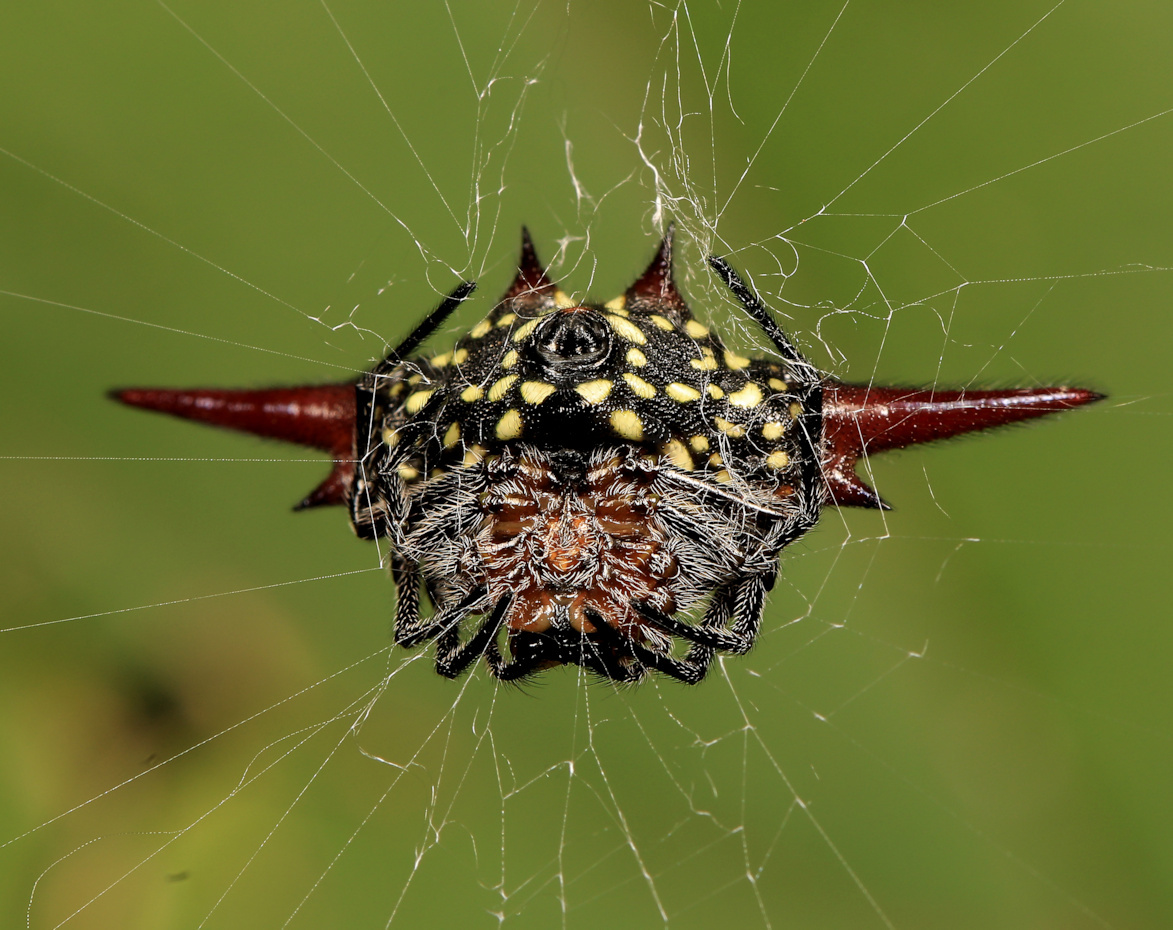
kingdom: Animalia
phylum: Arthropoda
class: Arachnida
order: Araneae
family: Araneidae
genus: Gasteracantha
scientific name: Gasteracantha versicolor
